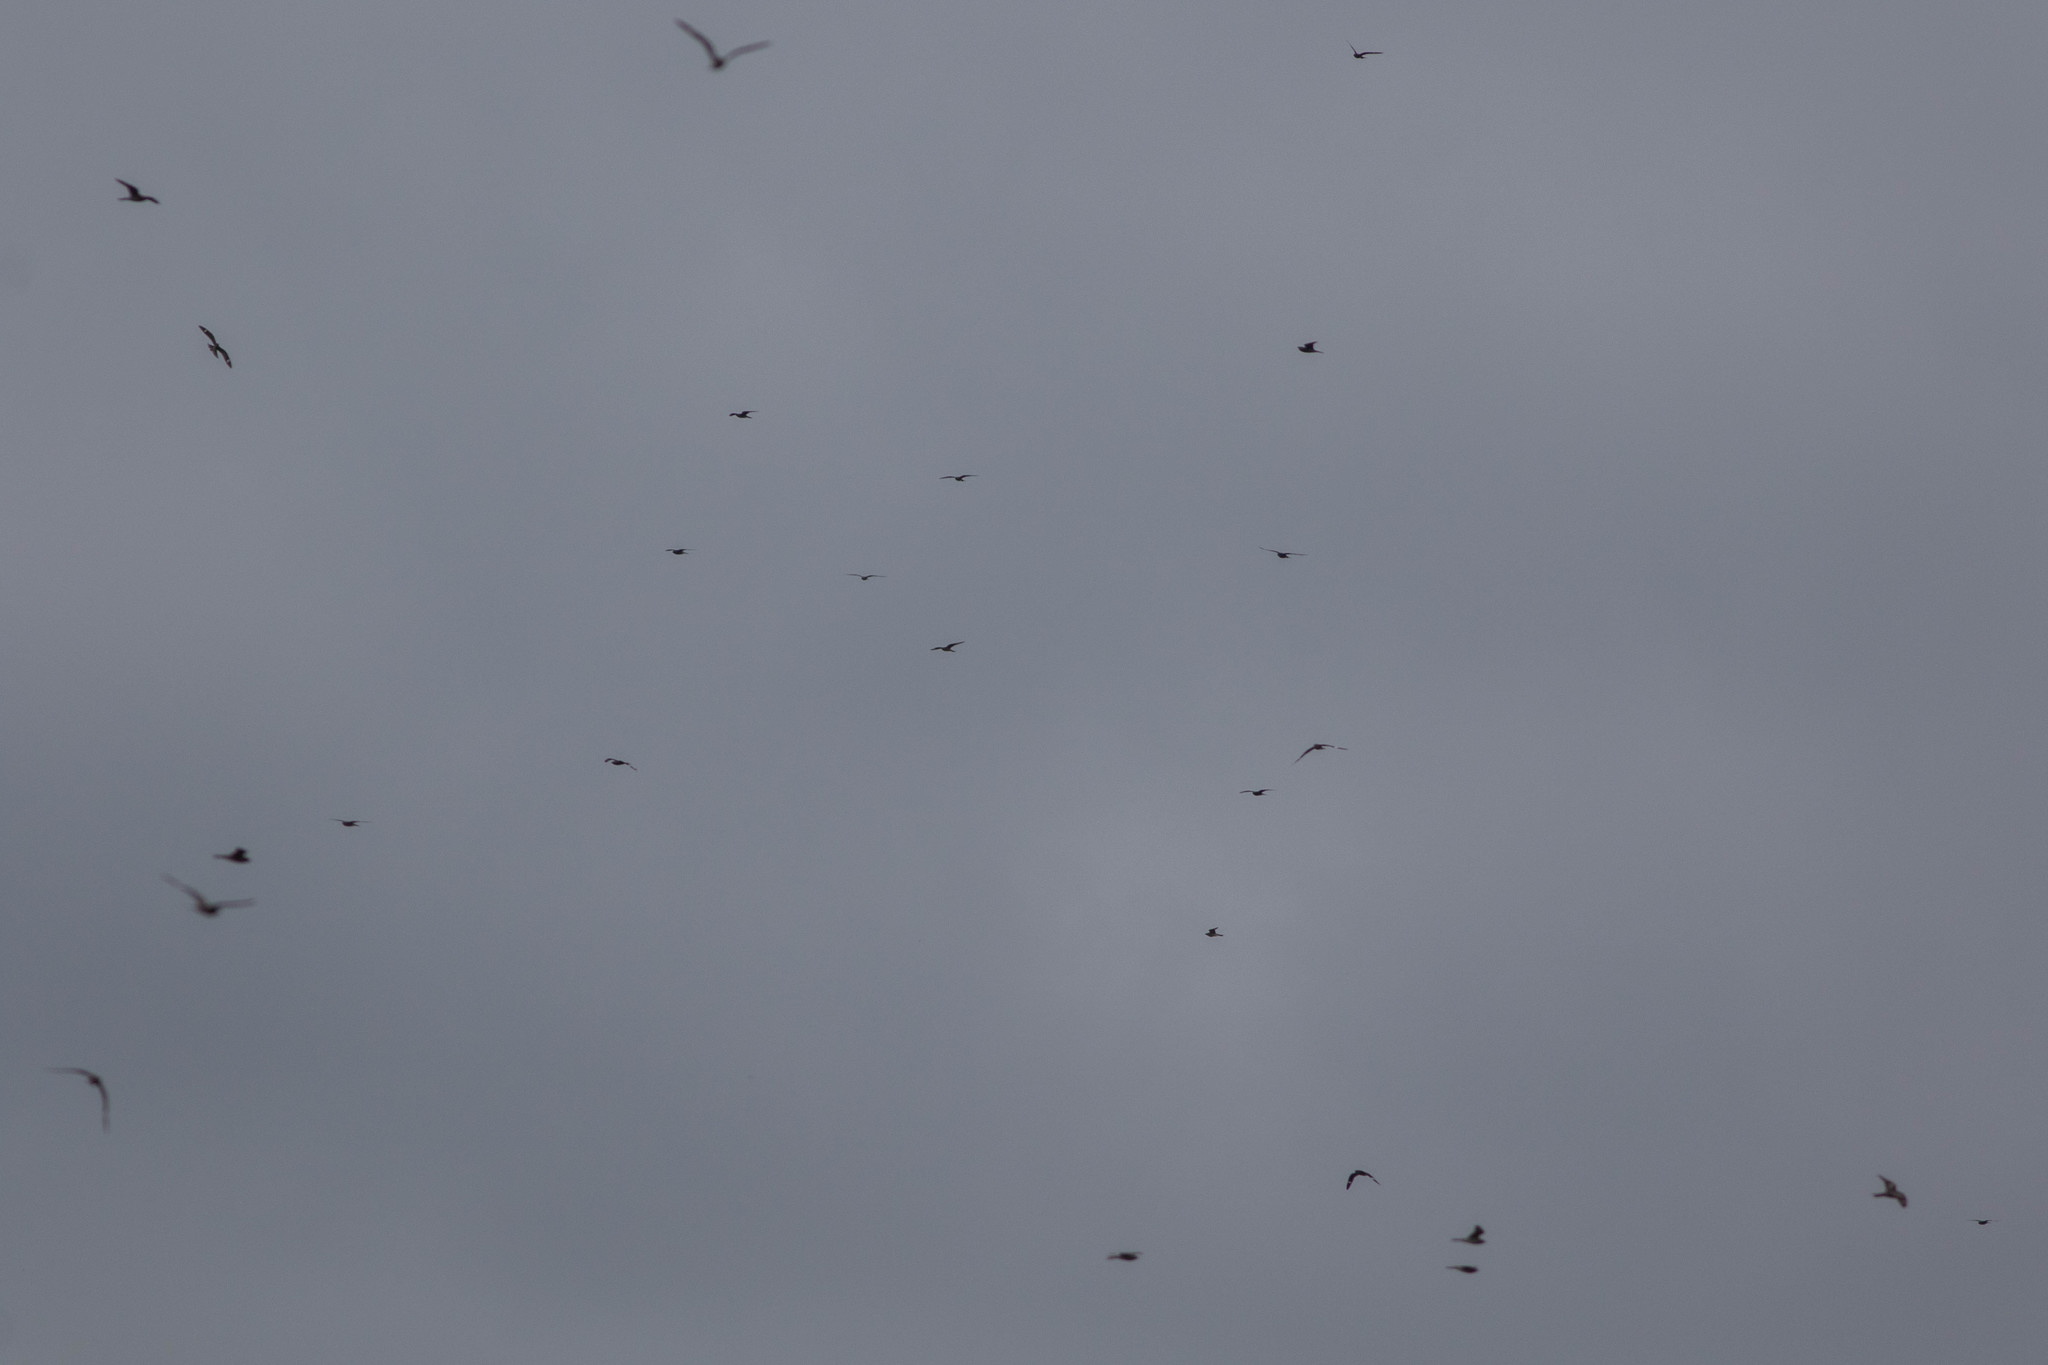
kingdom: Animalia
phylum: Chordata
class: Aves
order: Caprimulgiformes
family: Caprimulgidae
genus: Chordeiles
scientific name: Chordeiles minor
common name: Common nighthawk
